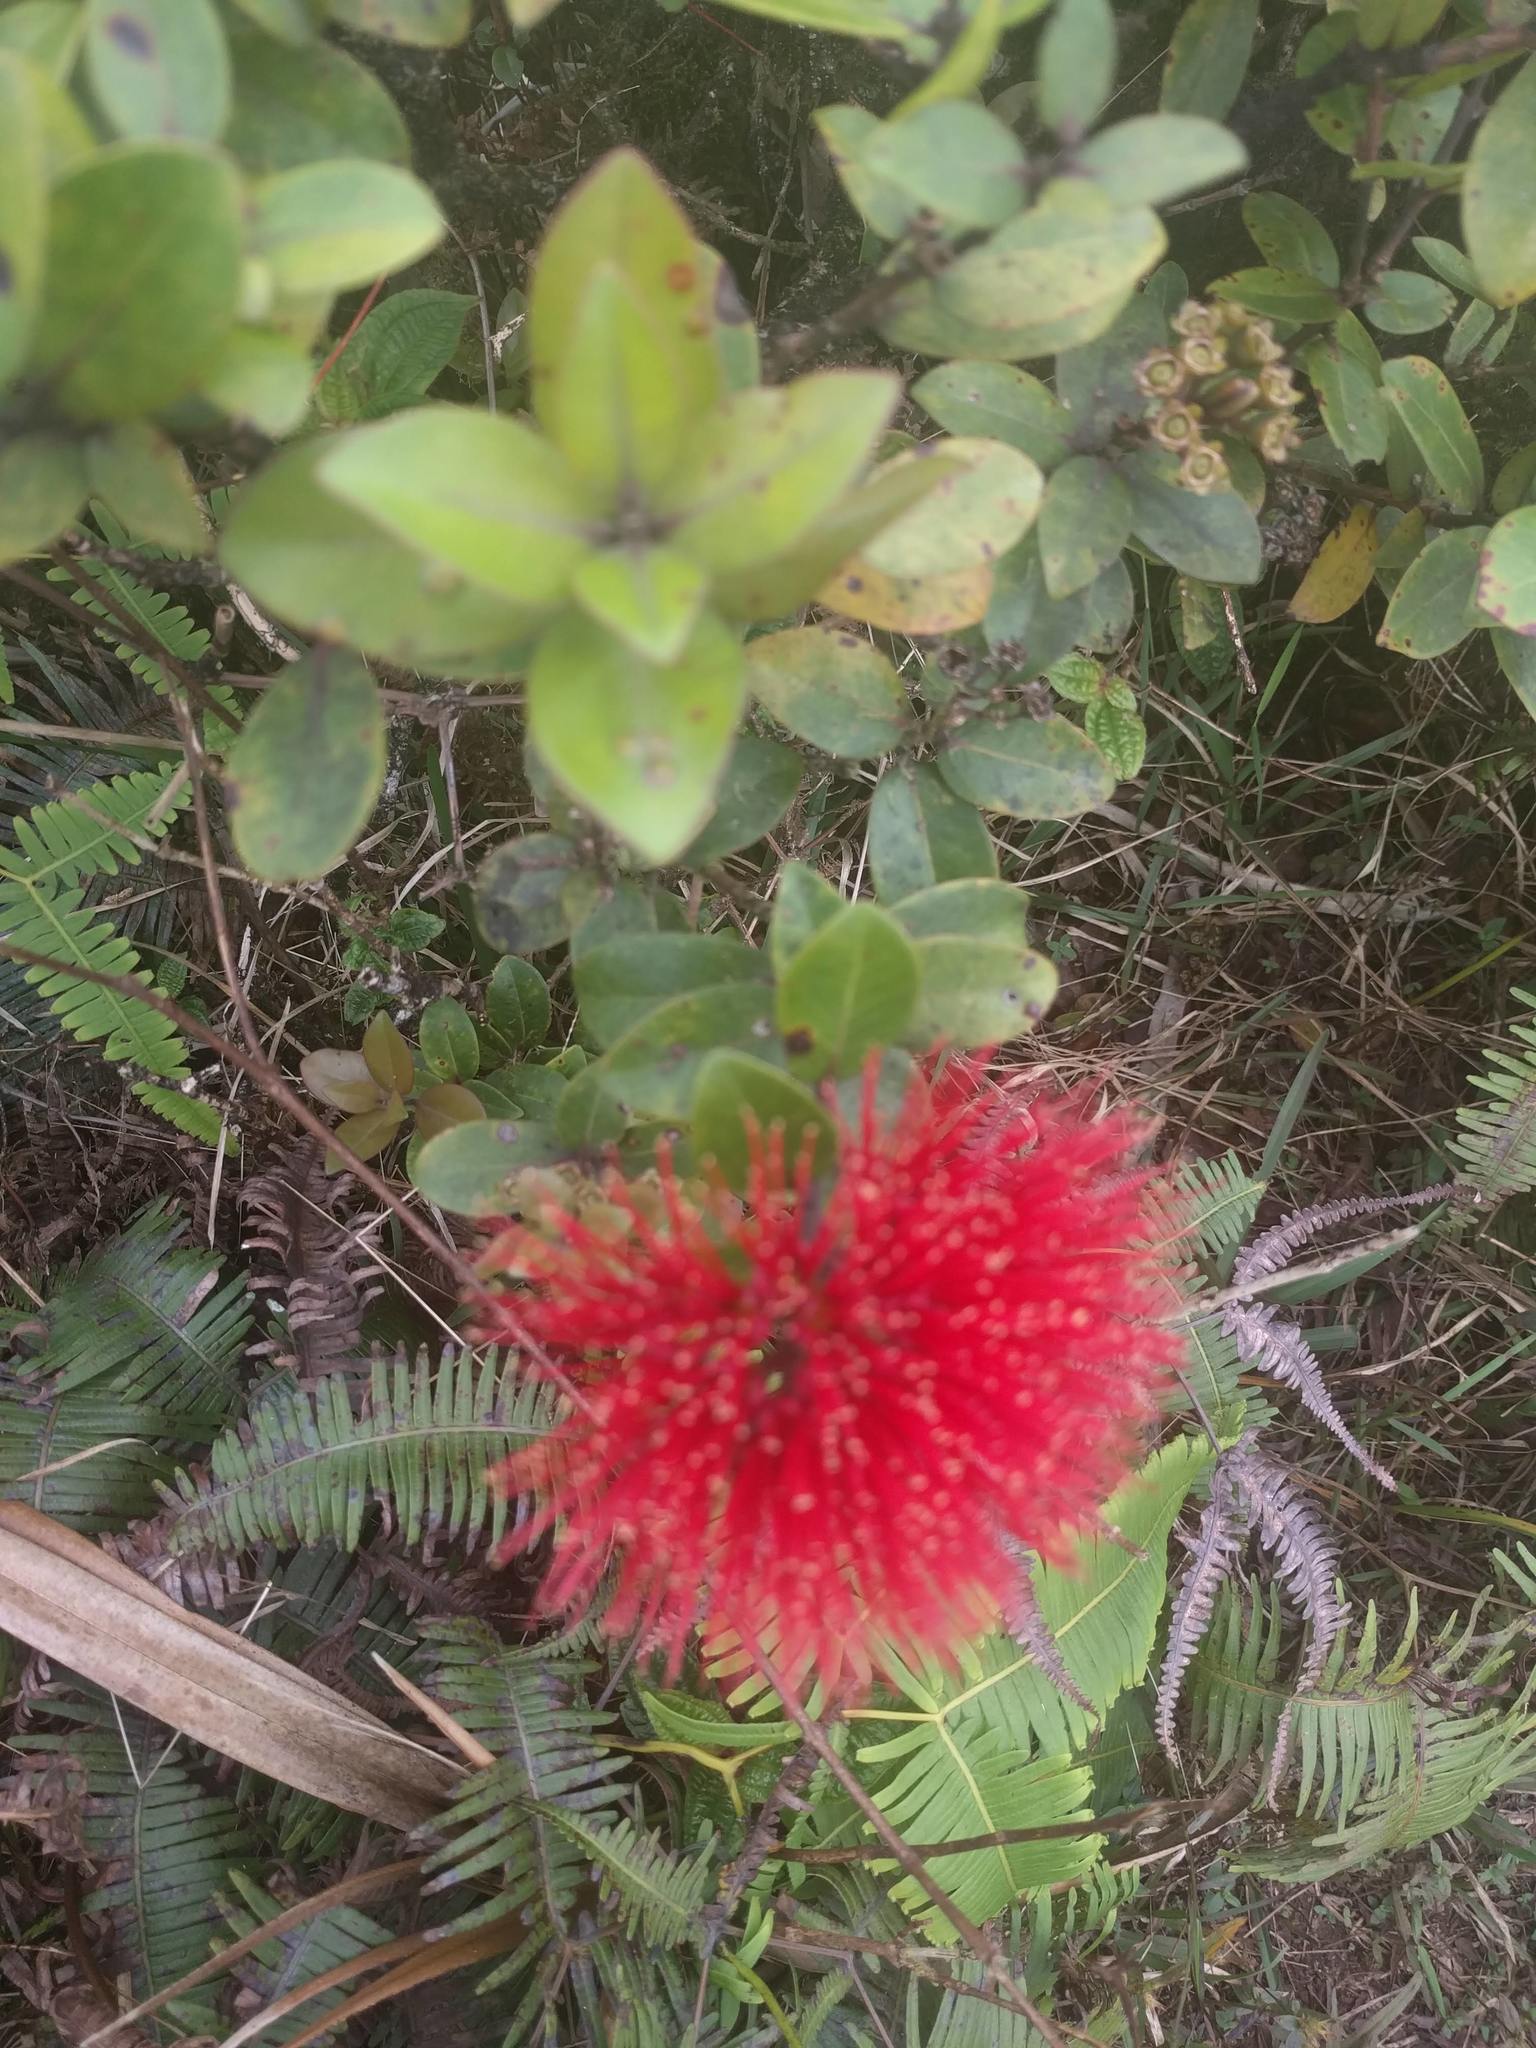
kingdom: Plantae
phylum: Tracheophyta
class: Magnoliopsida
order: Myrtales
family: Myrtaceae
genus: Metrosideros
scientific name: Metrosideros polymorpha
